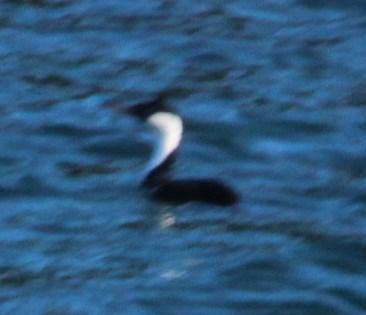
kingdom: Animalia
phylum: Chordata
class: Aves
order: Suliformes
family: Phalacrocoracidae
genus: Leucocarbo
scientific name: Leucocarbo atriceps
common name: Imperial shag
